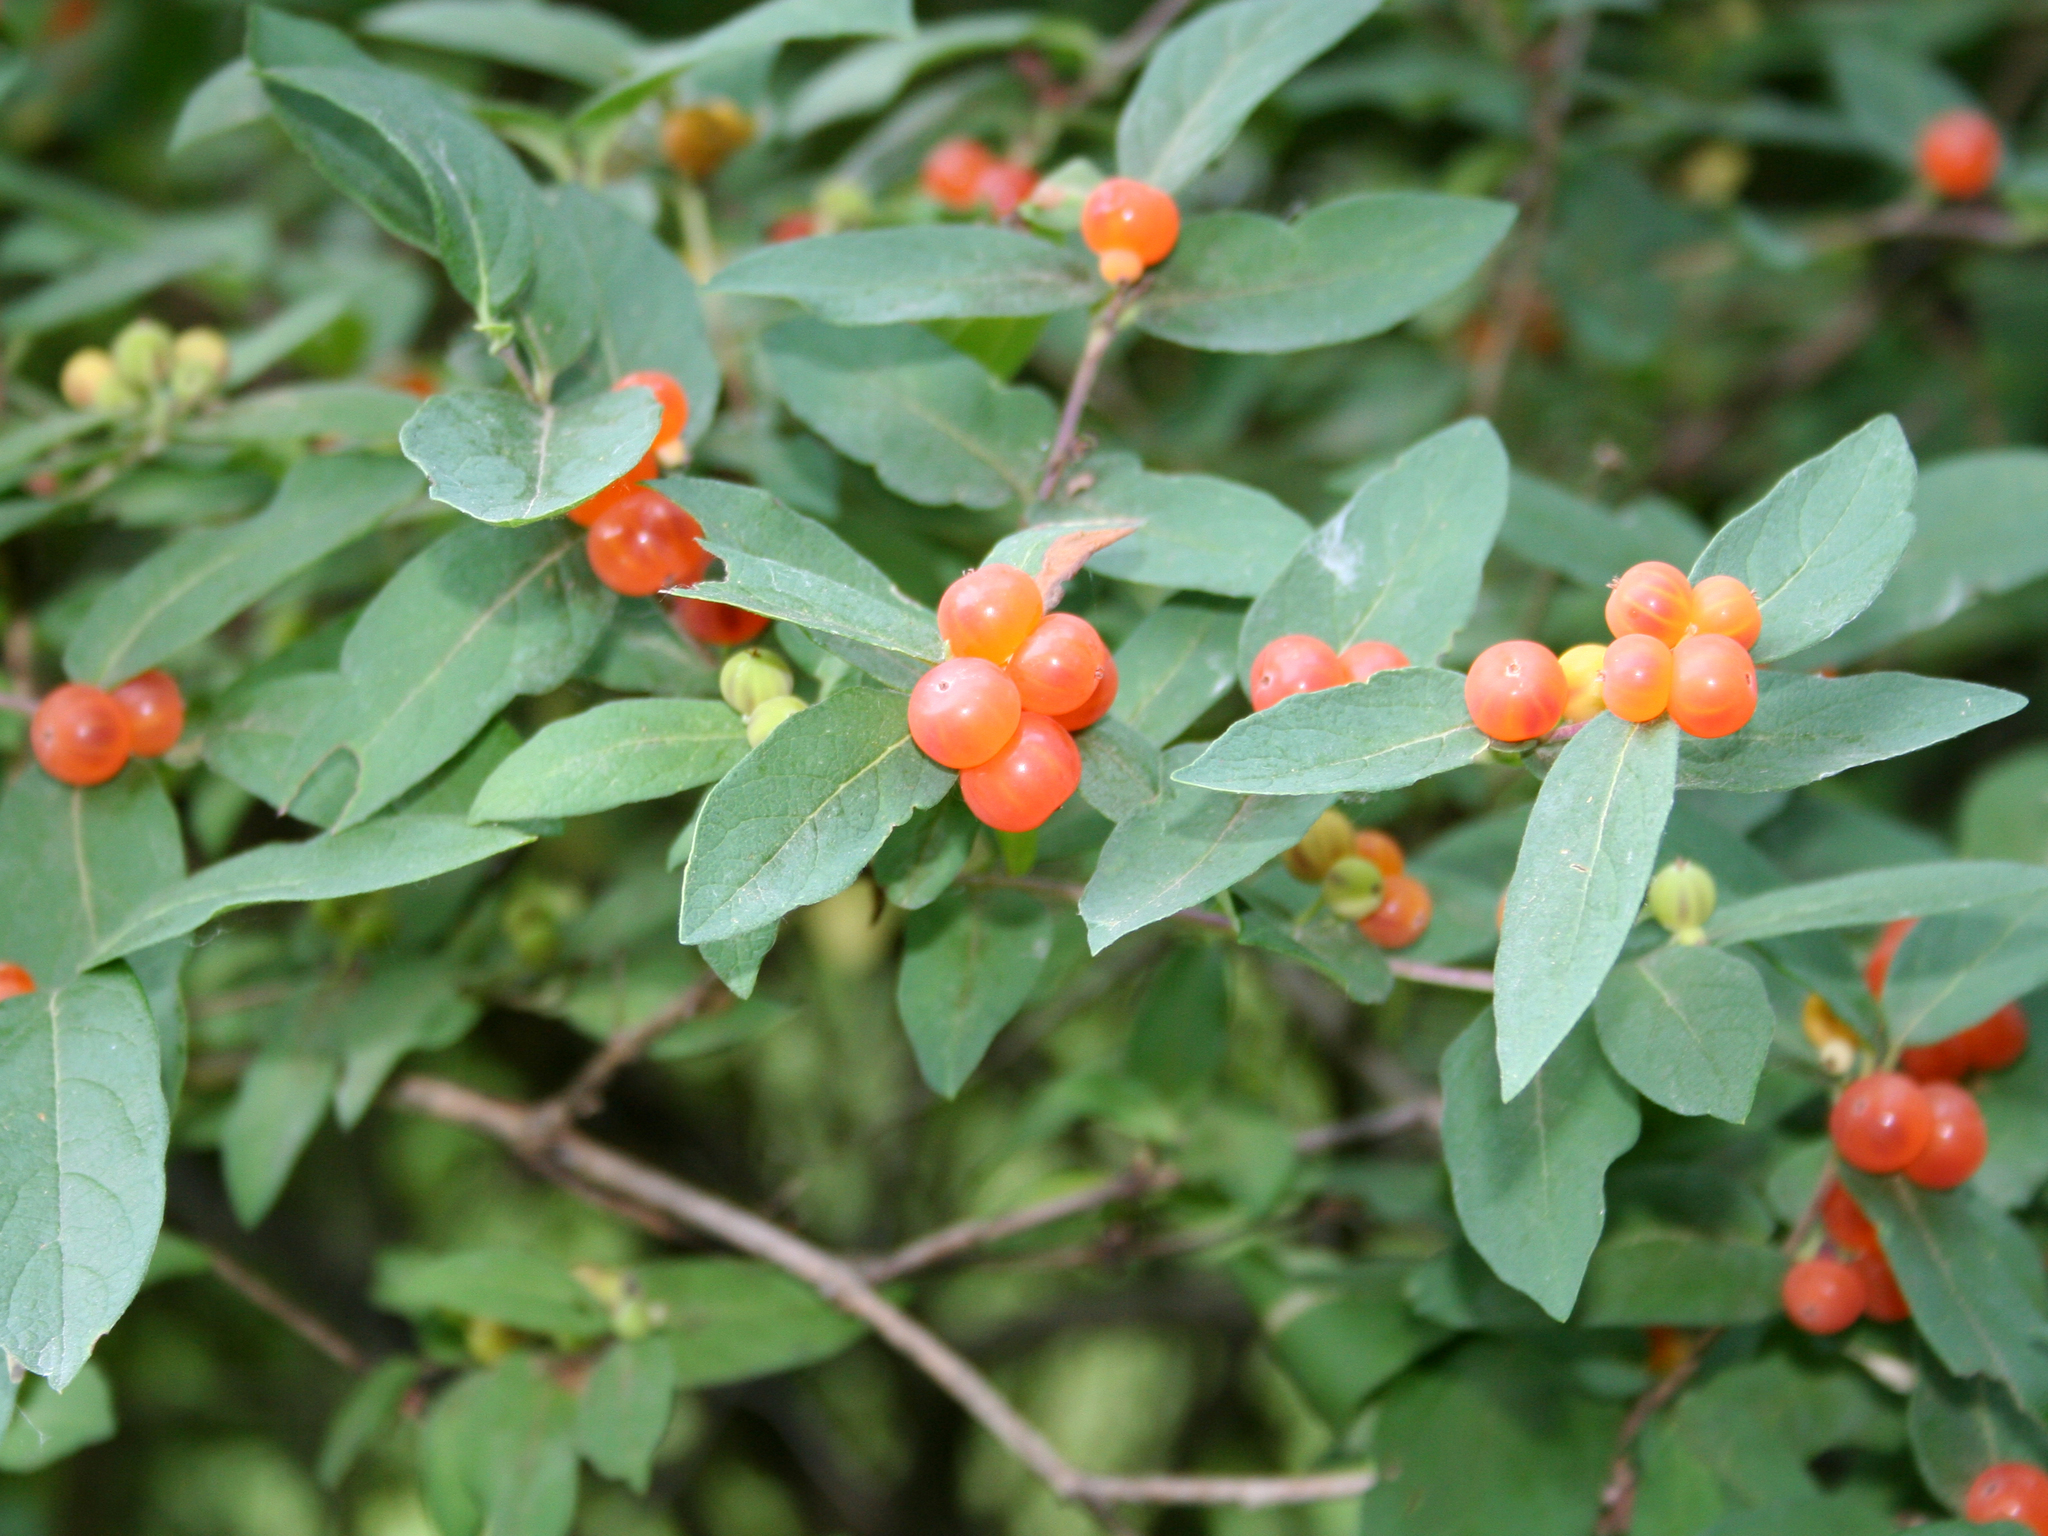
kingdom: Plantae
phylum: Tracheophyta
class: Magnoliopsida
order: Dipsacales
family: Caprifoliaceae
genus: Lonicera
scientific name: Lonicera
